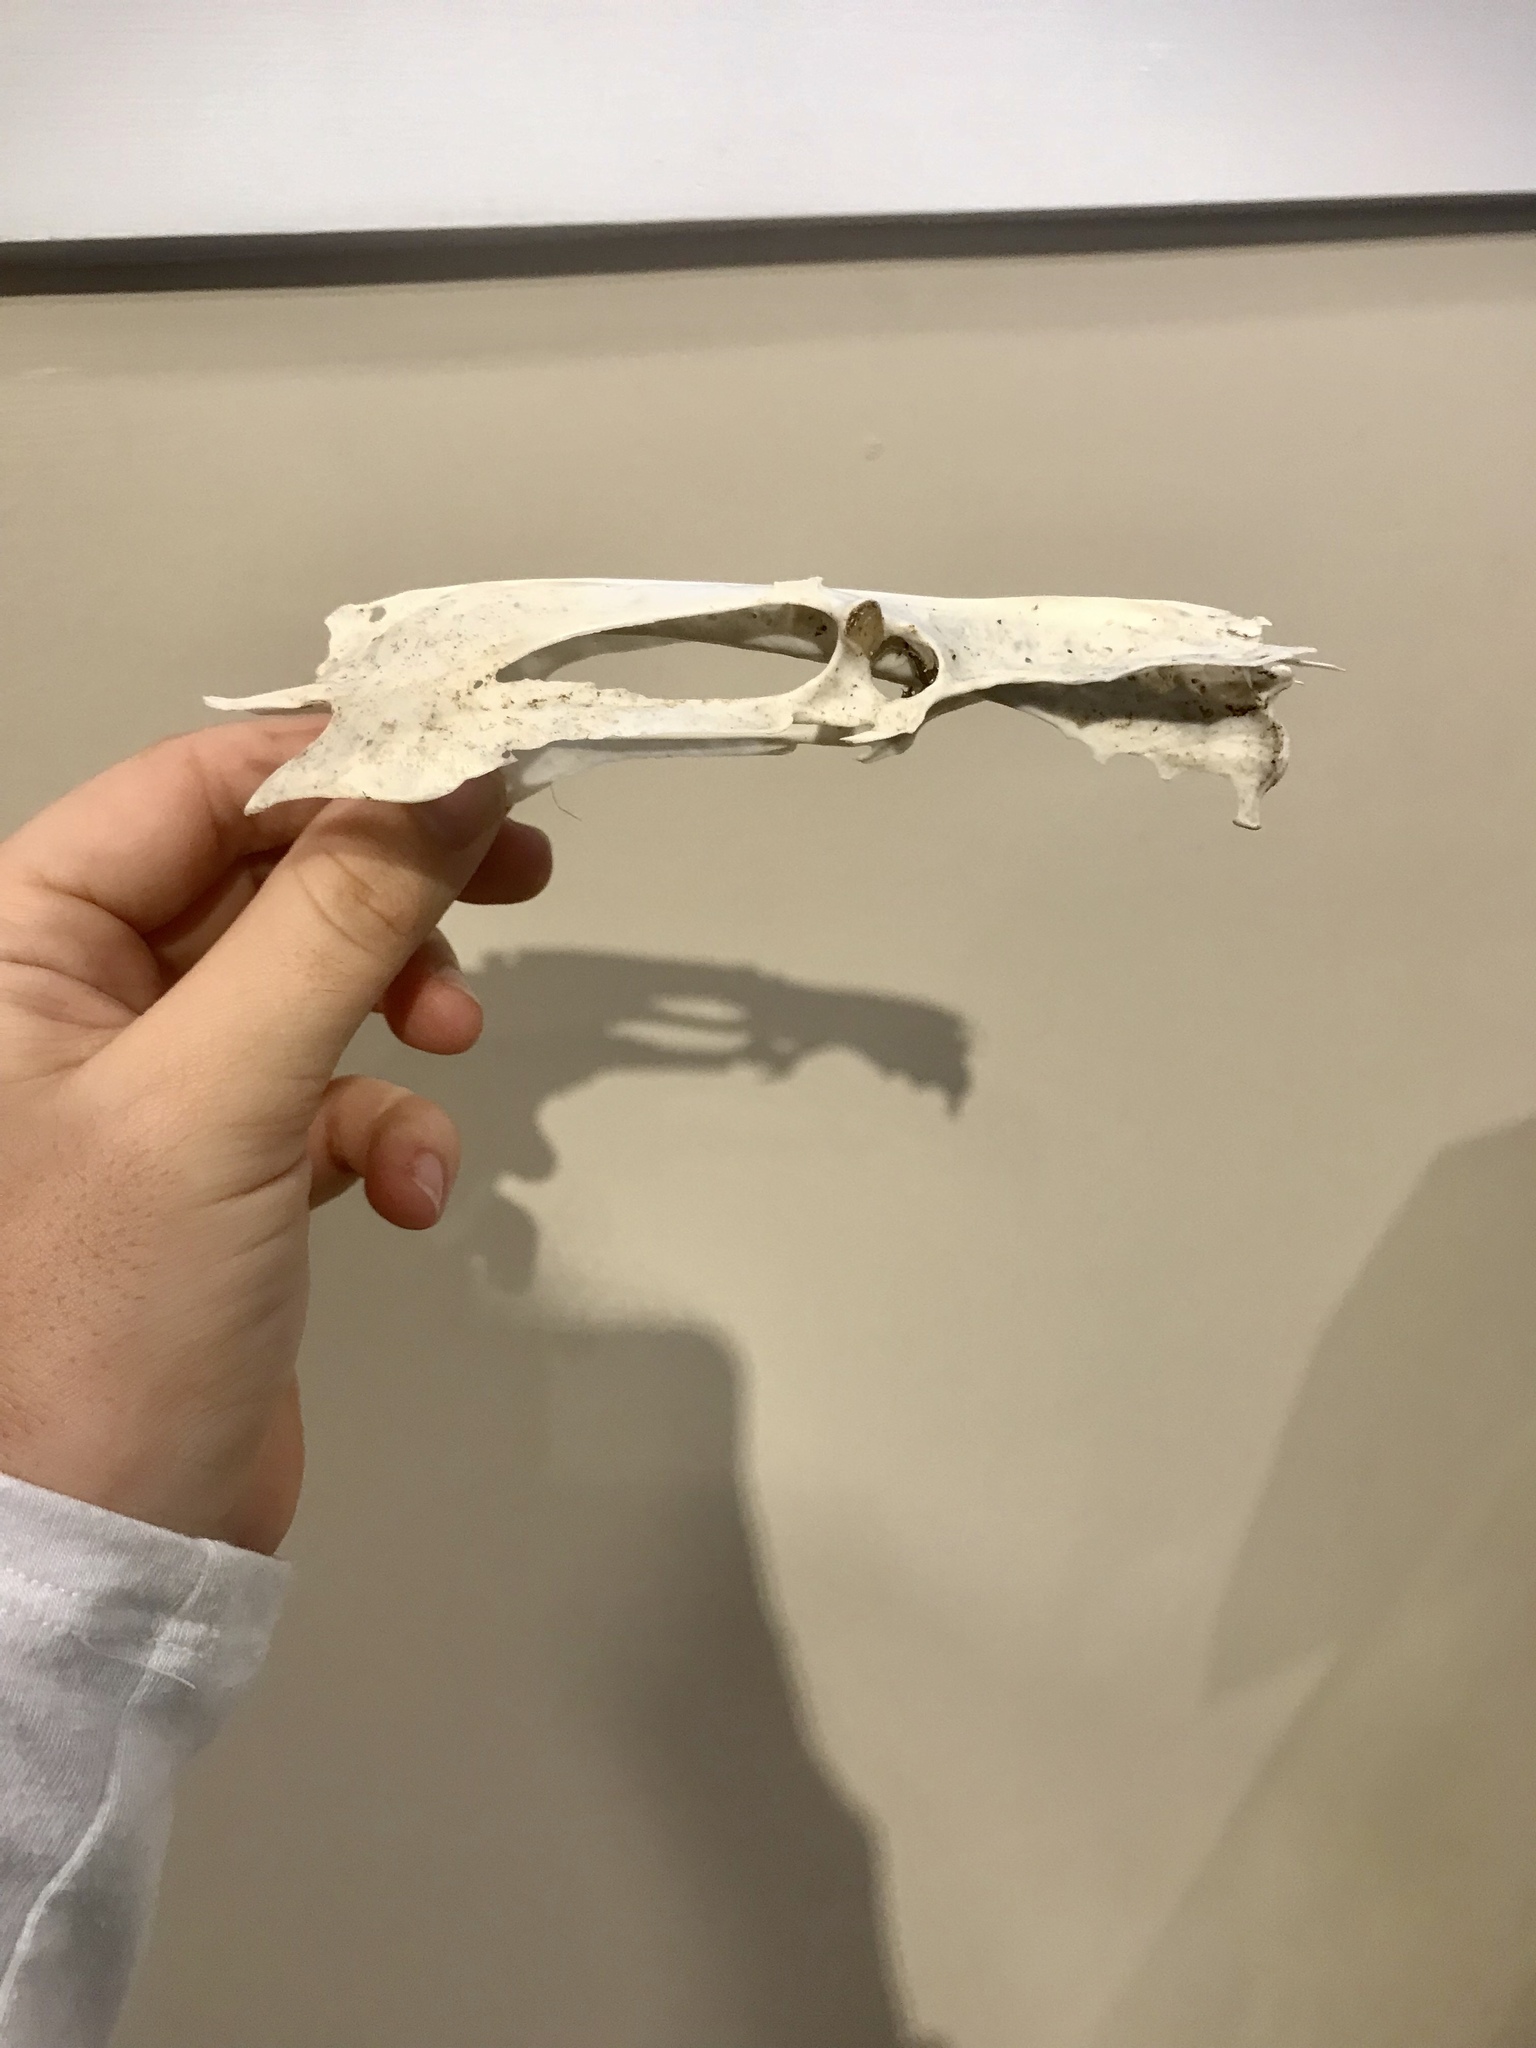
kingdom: Animalia
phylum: Chordata
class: Aves
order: Suliformes
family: Phalacrocoracidae
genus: Phalacrocorax
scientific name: Phalacrocorax auritus
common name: Double-crested cormorant
